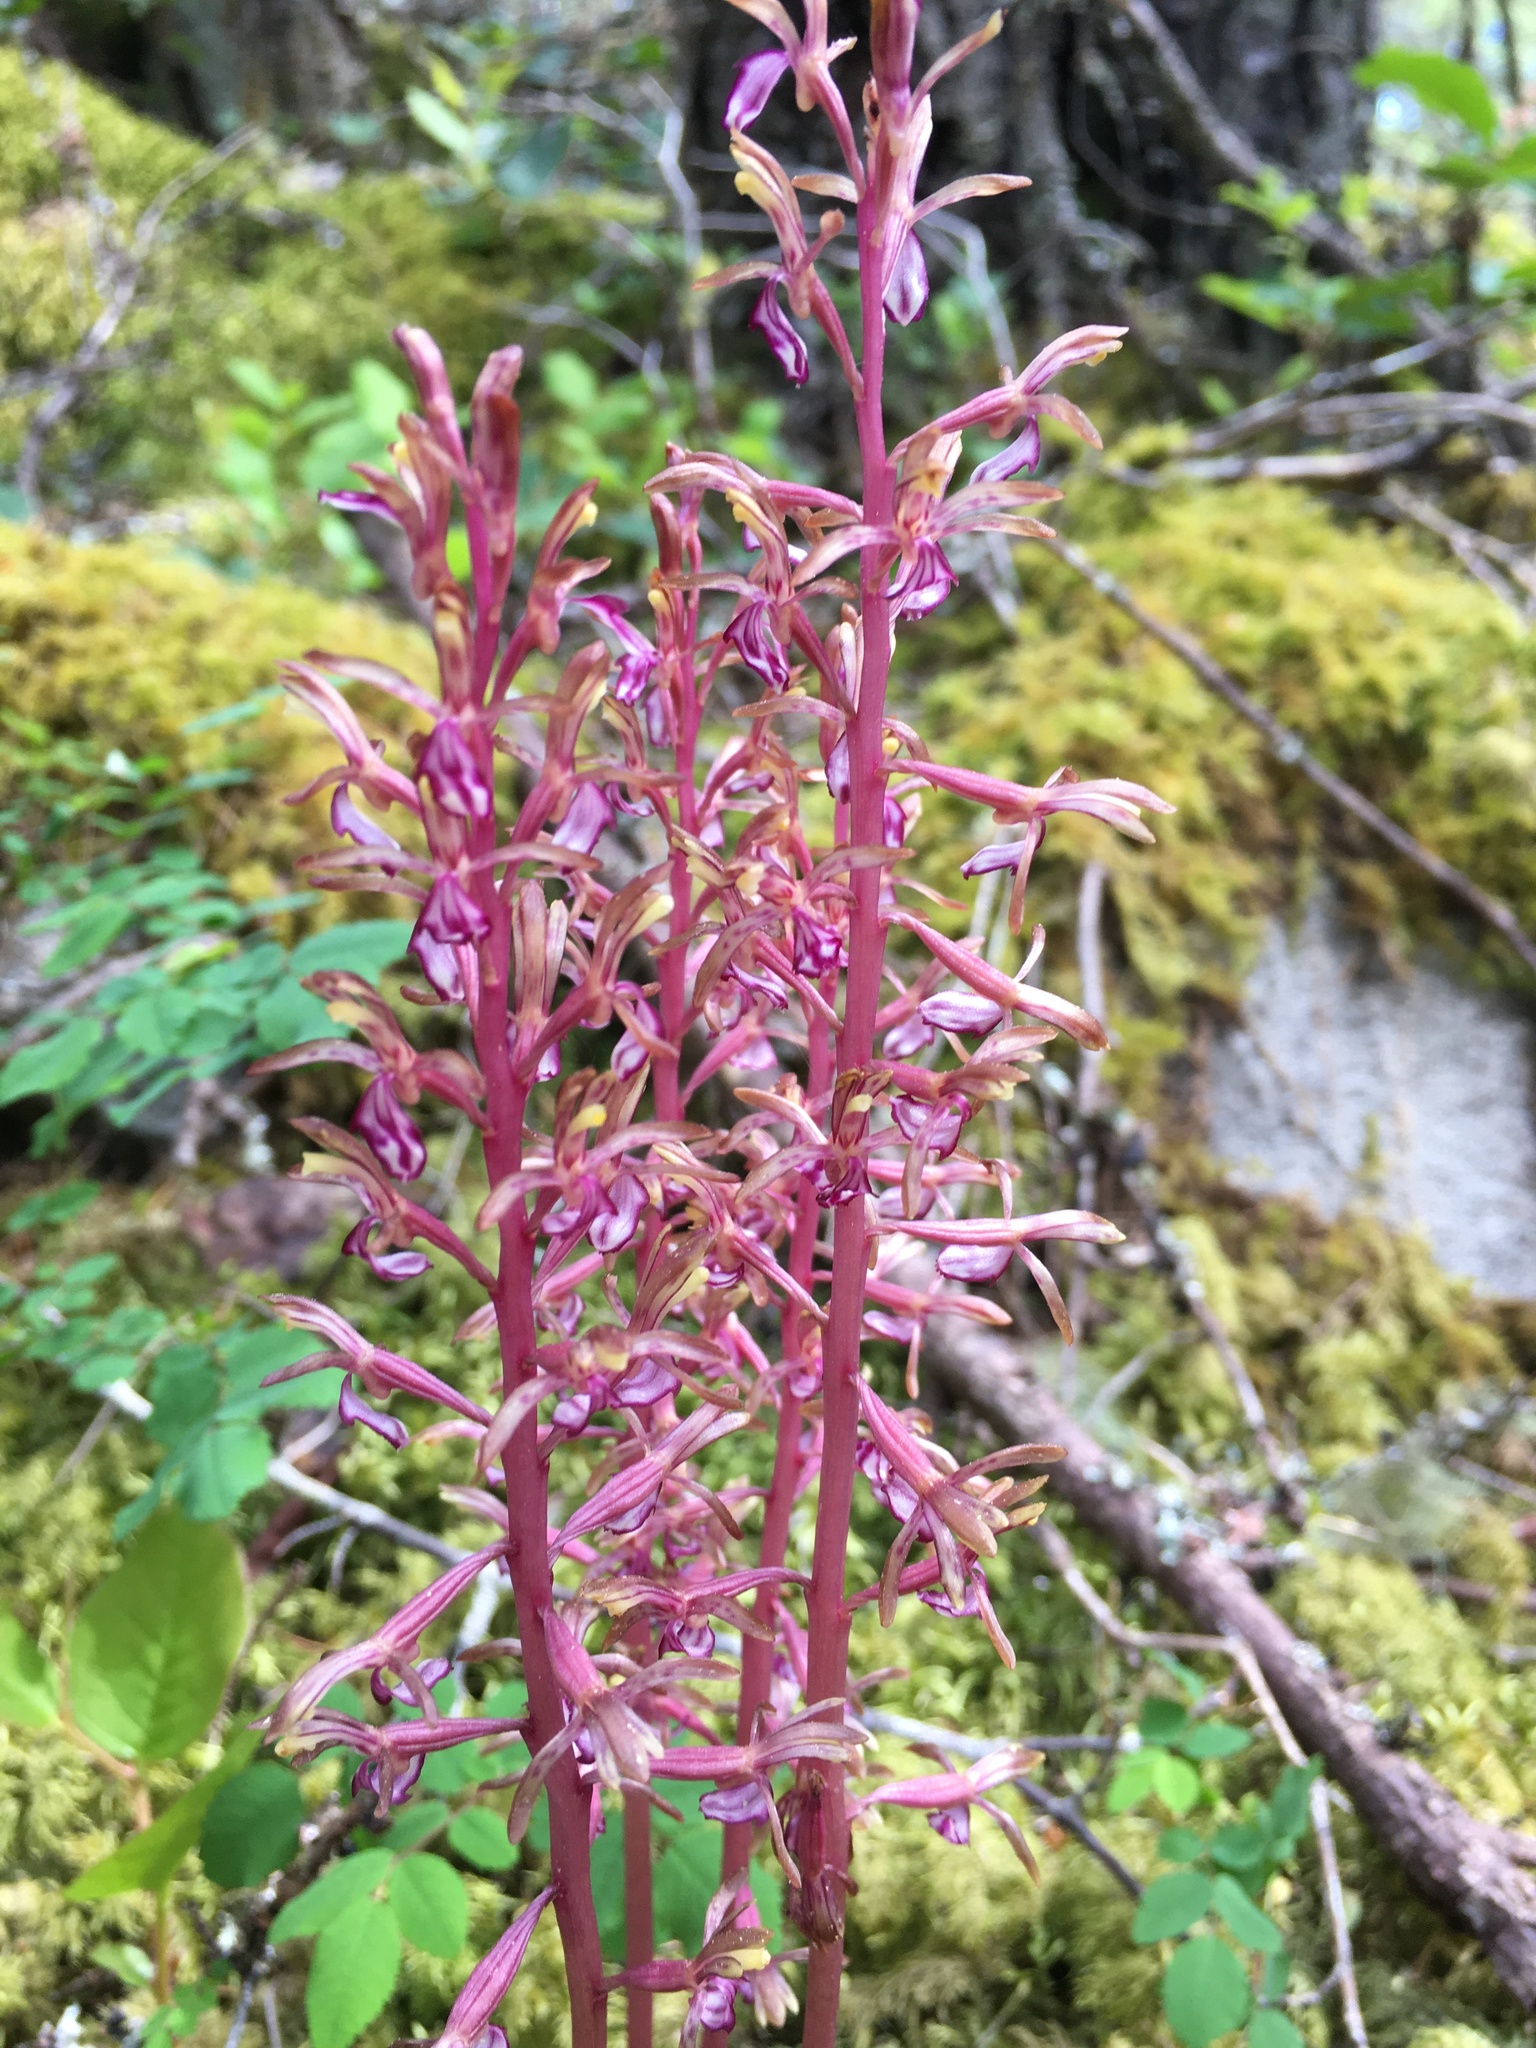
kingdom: Plantae
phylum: Tracheophyta
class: Liliopsida
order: Asparagales
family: Orchidaceae
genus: Corallorhiza
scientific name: Corallorhiza mertensiana
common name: Pacific coralroot
